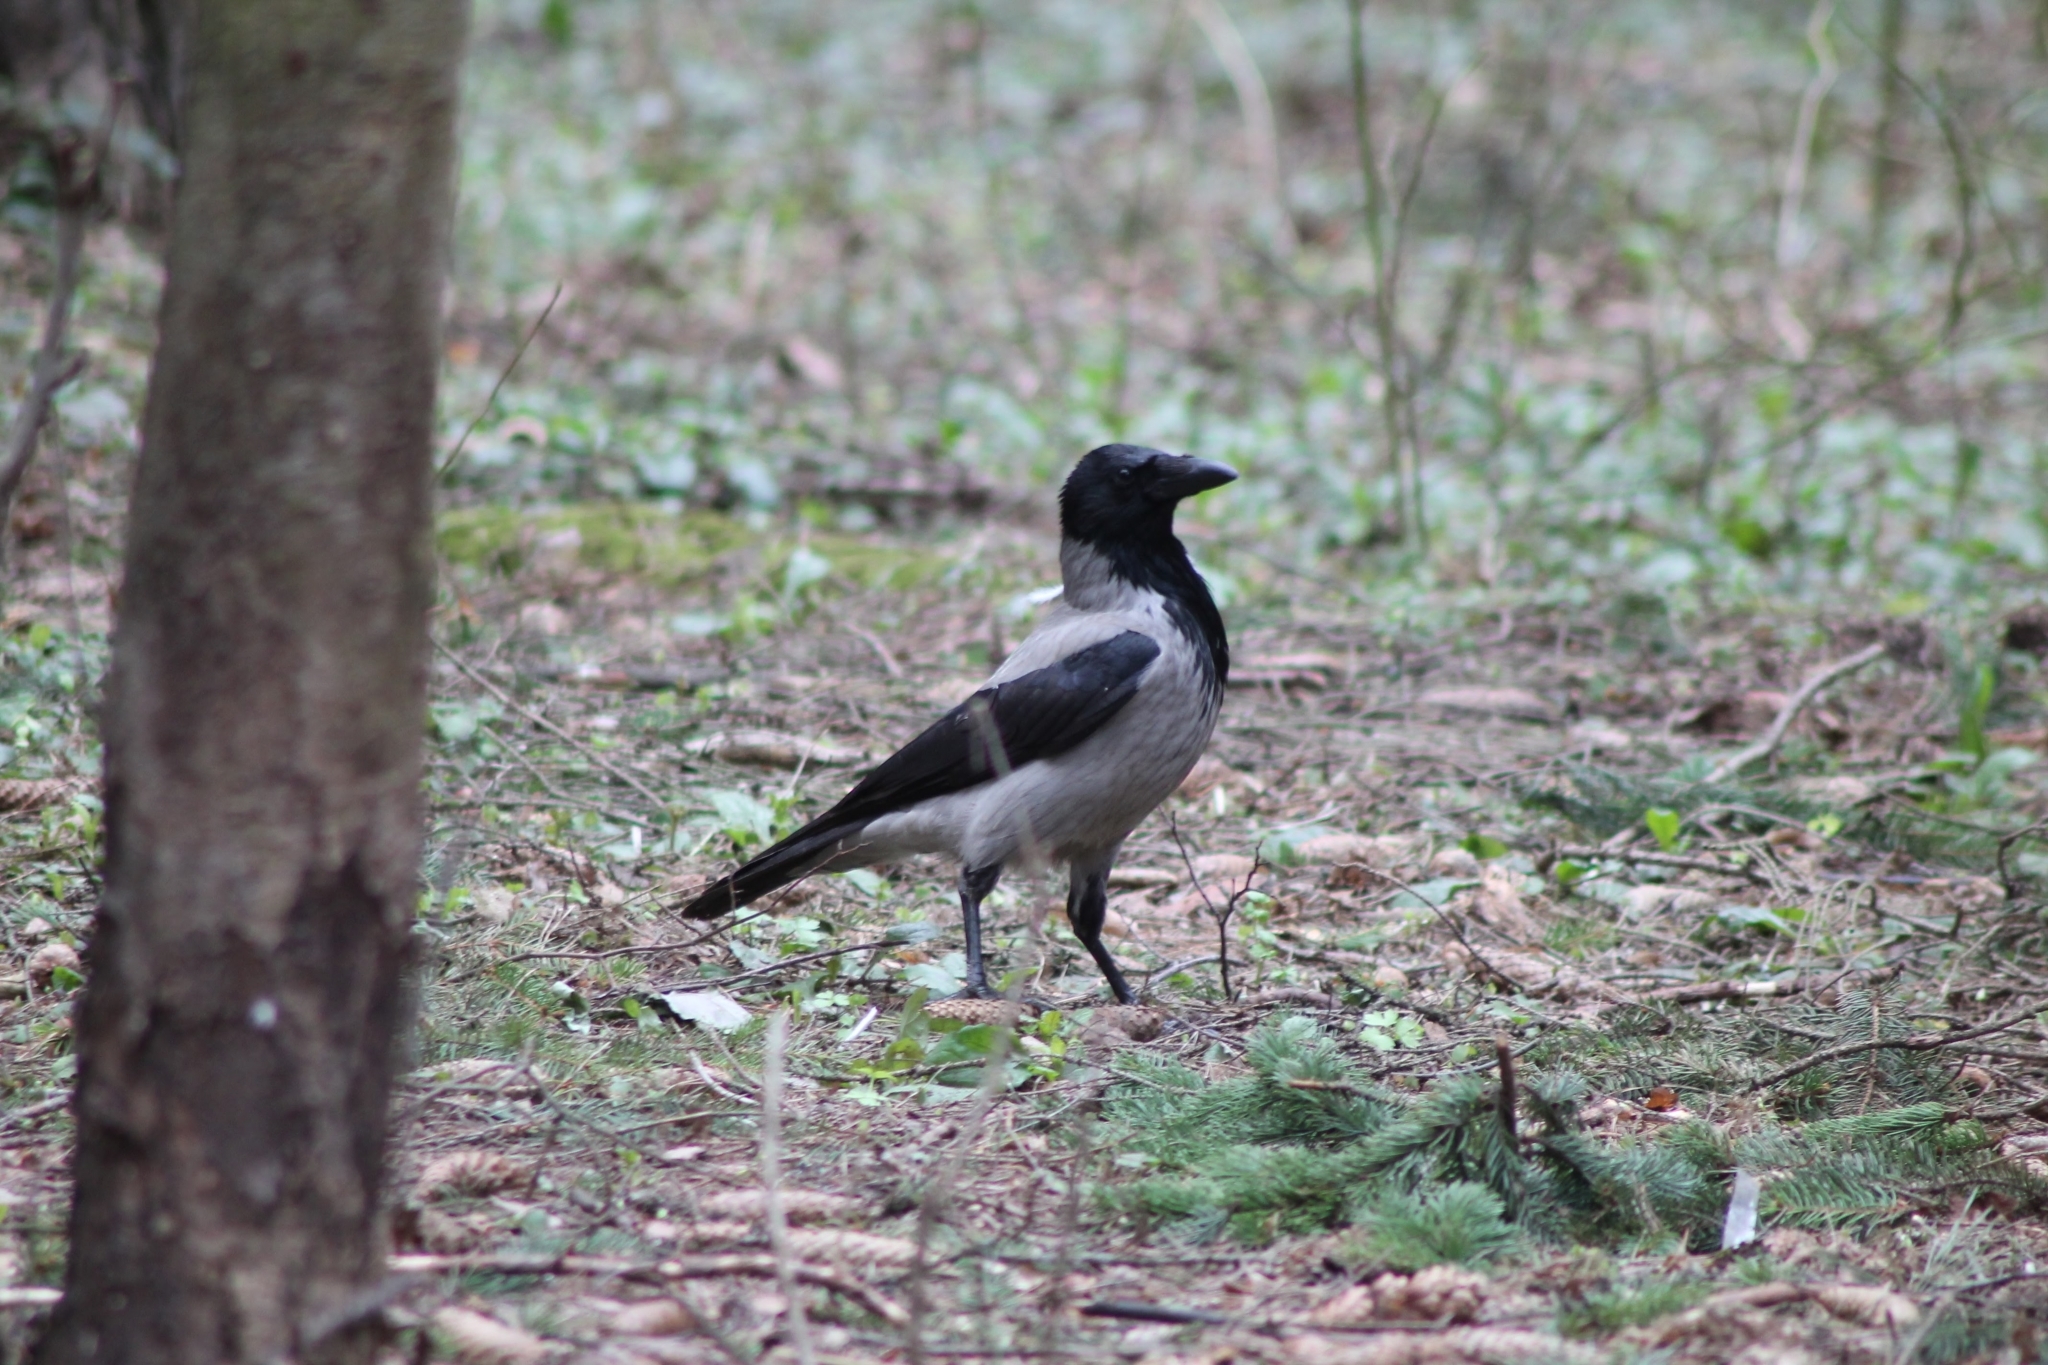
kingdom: Animalia
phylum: Chordata
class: Aves
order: Passeriformes
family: Corvidae
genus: Corvus
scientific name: Corvus cornix
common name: Hooded crow
